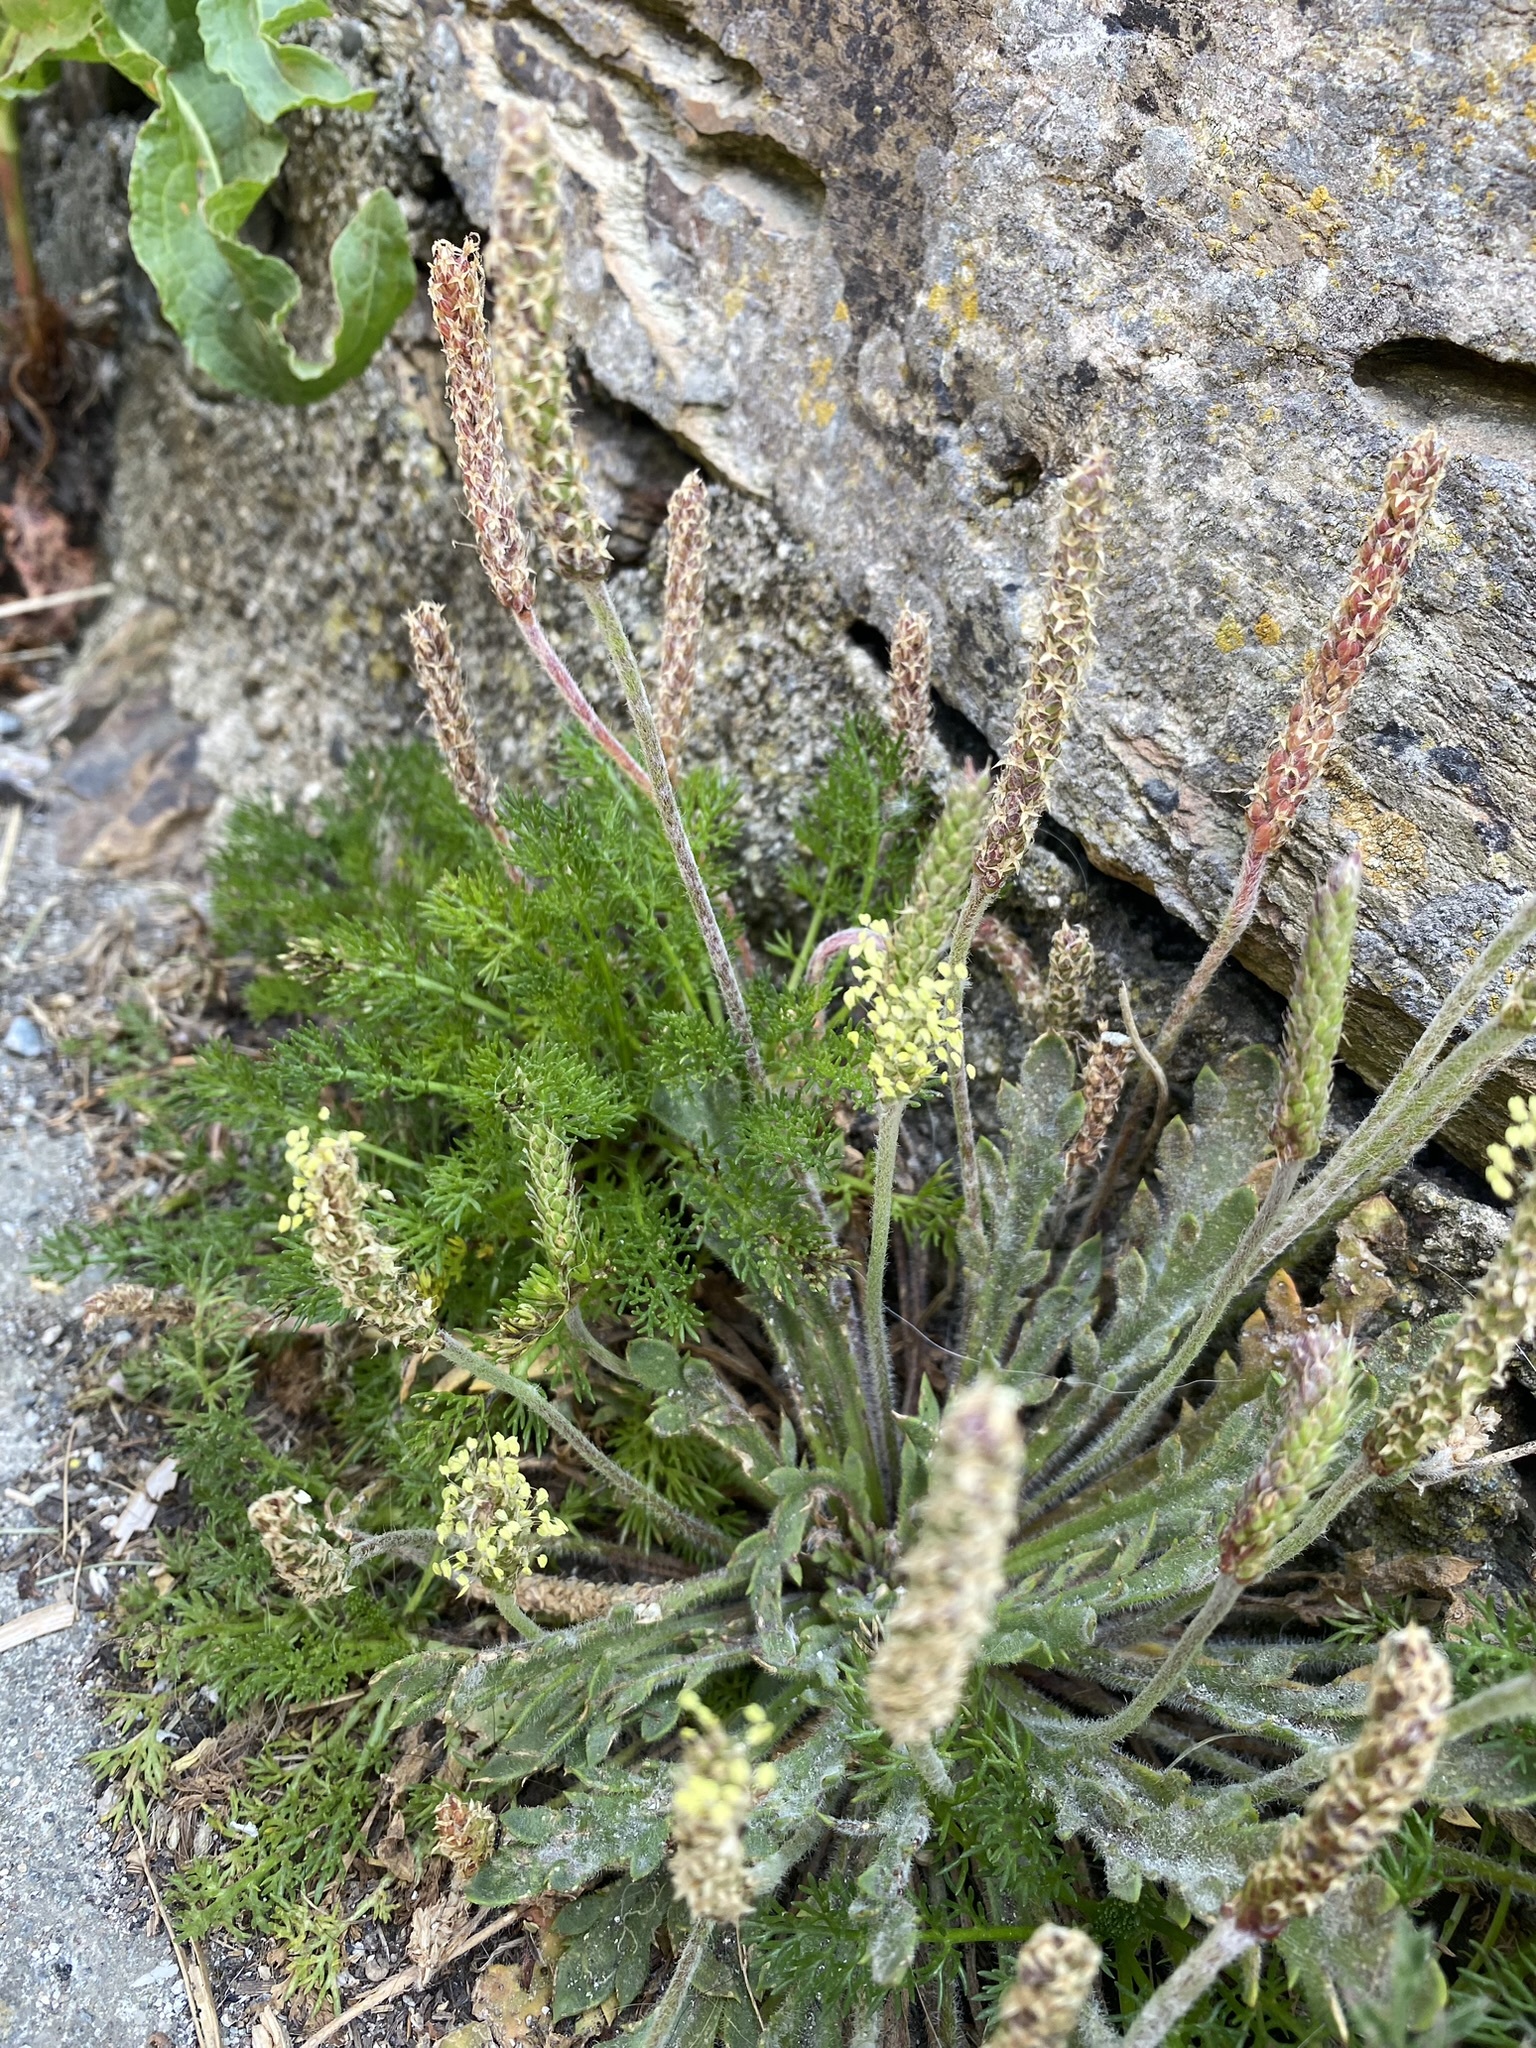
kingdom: Plantae
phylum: Tracheophyta
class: Magnoliopsida
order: Lamiales
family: Plantaginaceae
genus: Plantago
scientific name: Plantago coronopus
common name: Buck's-horn plantain
